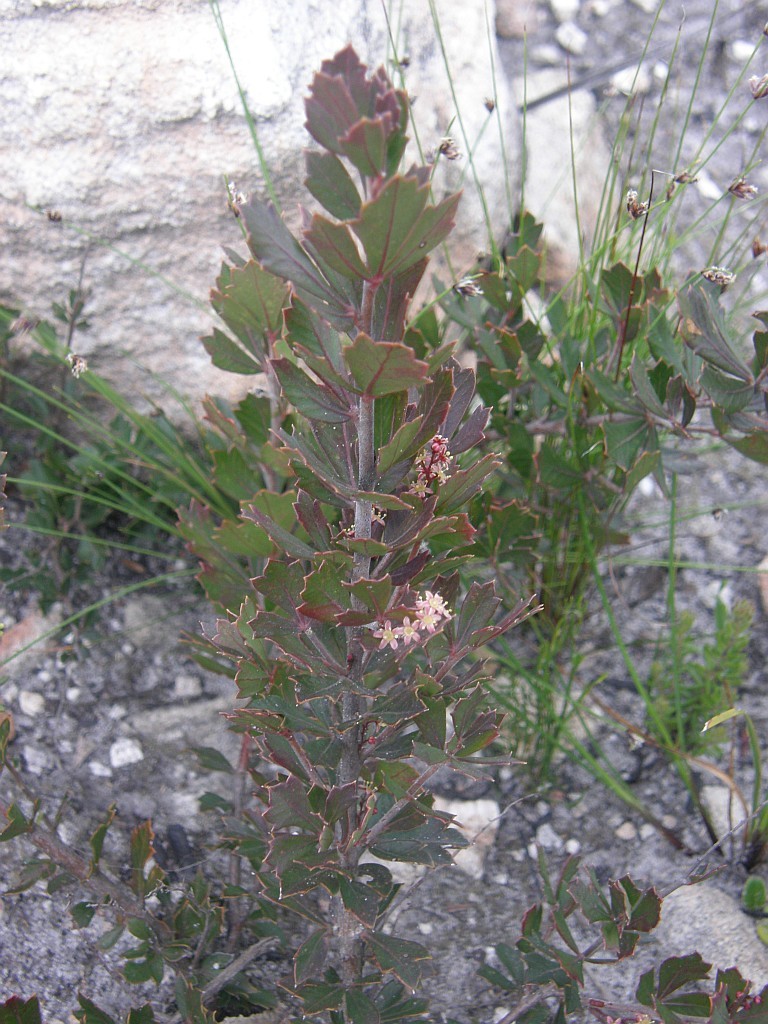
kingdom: Plantae
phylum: Tracheophyta
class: Magnoliopsida
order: Sapindales
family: Anacardiaceae
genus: Searsia
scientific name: Searsia cuneifolia
